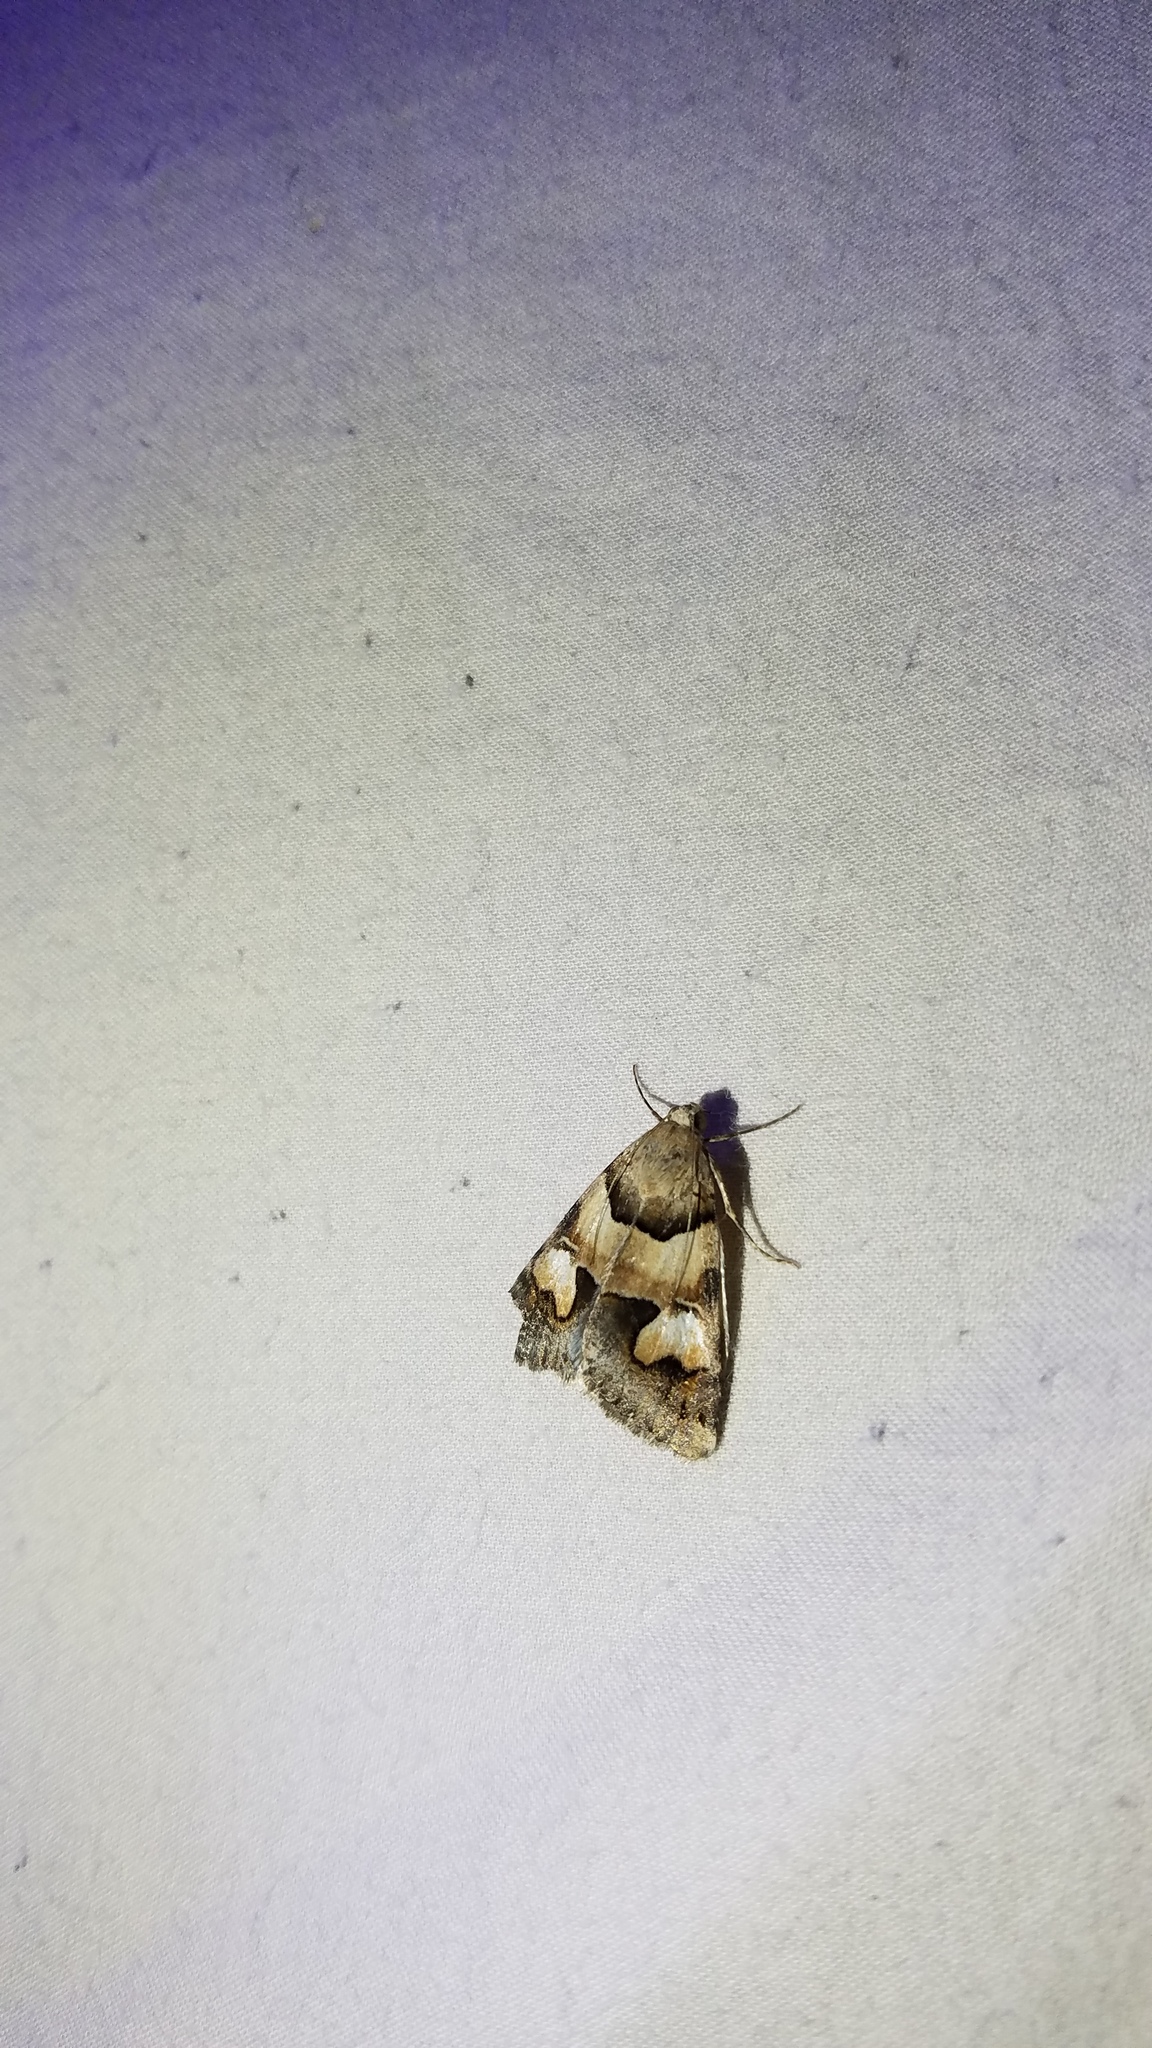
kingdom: Animalia
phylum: Arthropoda
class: Insecta
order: Lepidoptera
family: Erebidae
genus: Drasteria
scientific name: Drasteria pallescens
